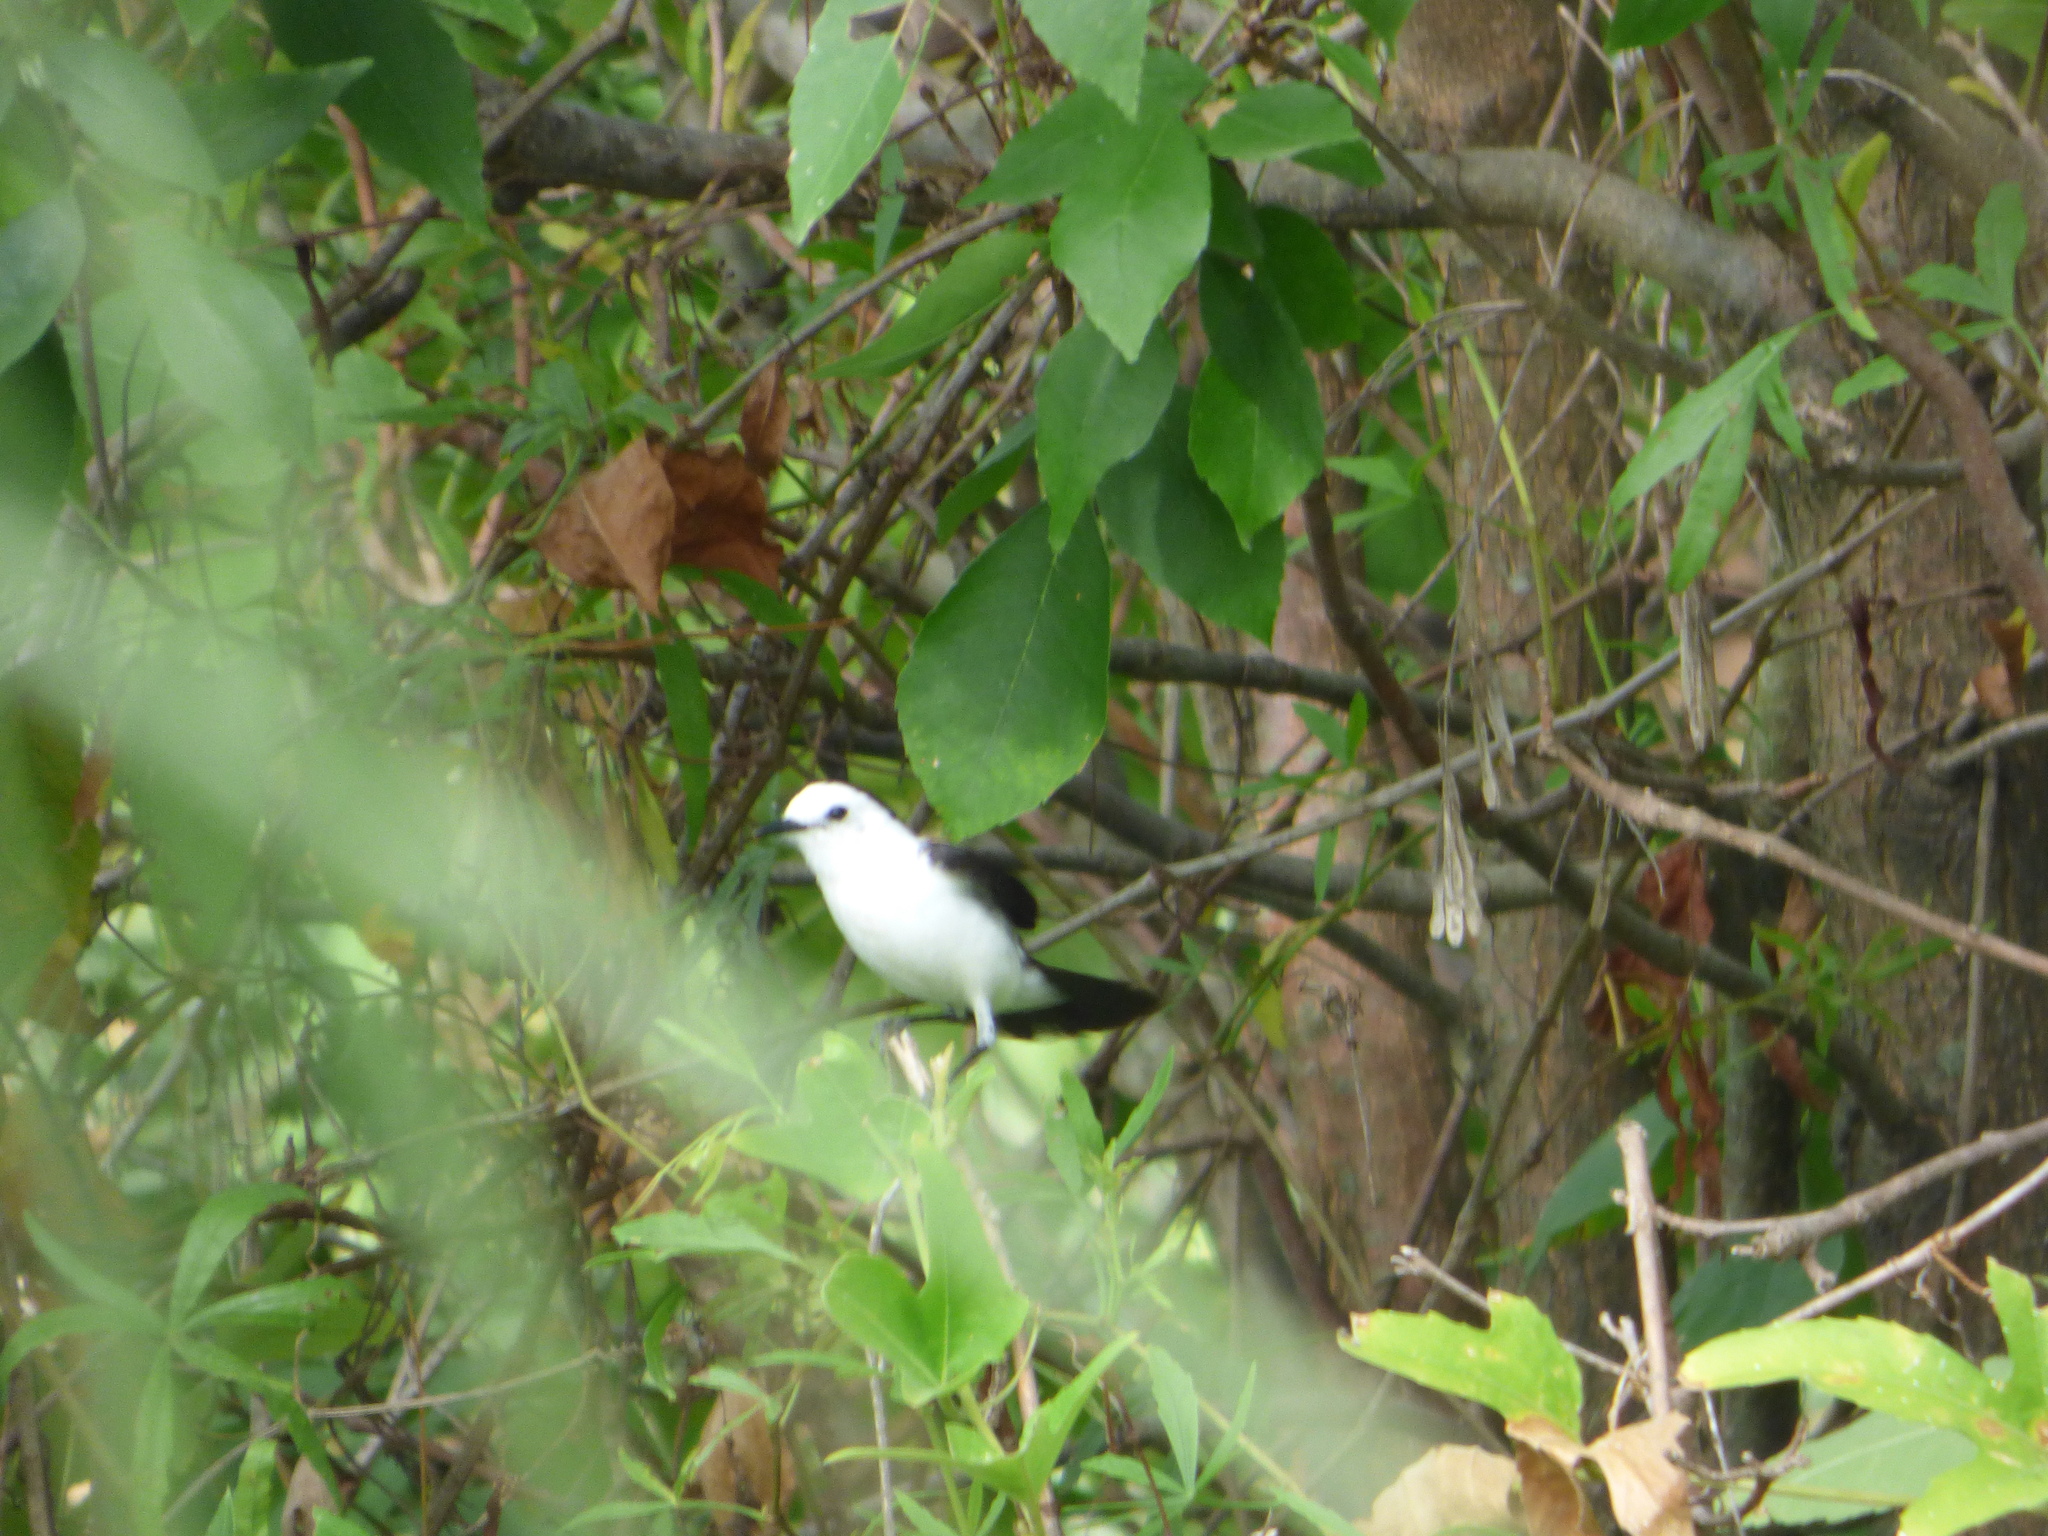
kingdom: Animalia
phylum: Chordata
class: Aves
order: Passeriformes
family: Tyrannidae
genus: Fluvicola
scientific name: Fluvicola pica
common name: Pied water-tyrant
